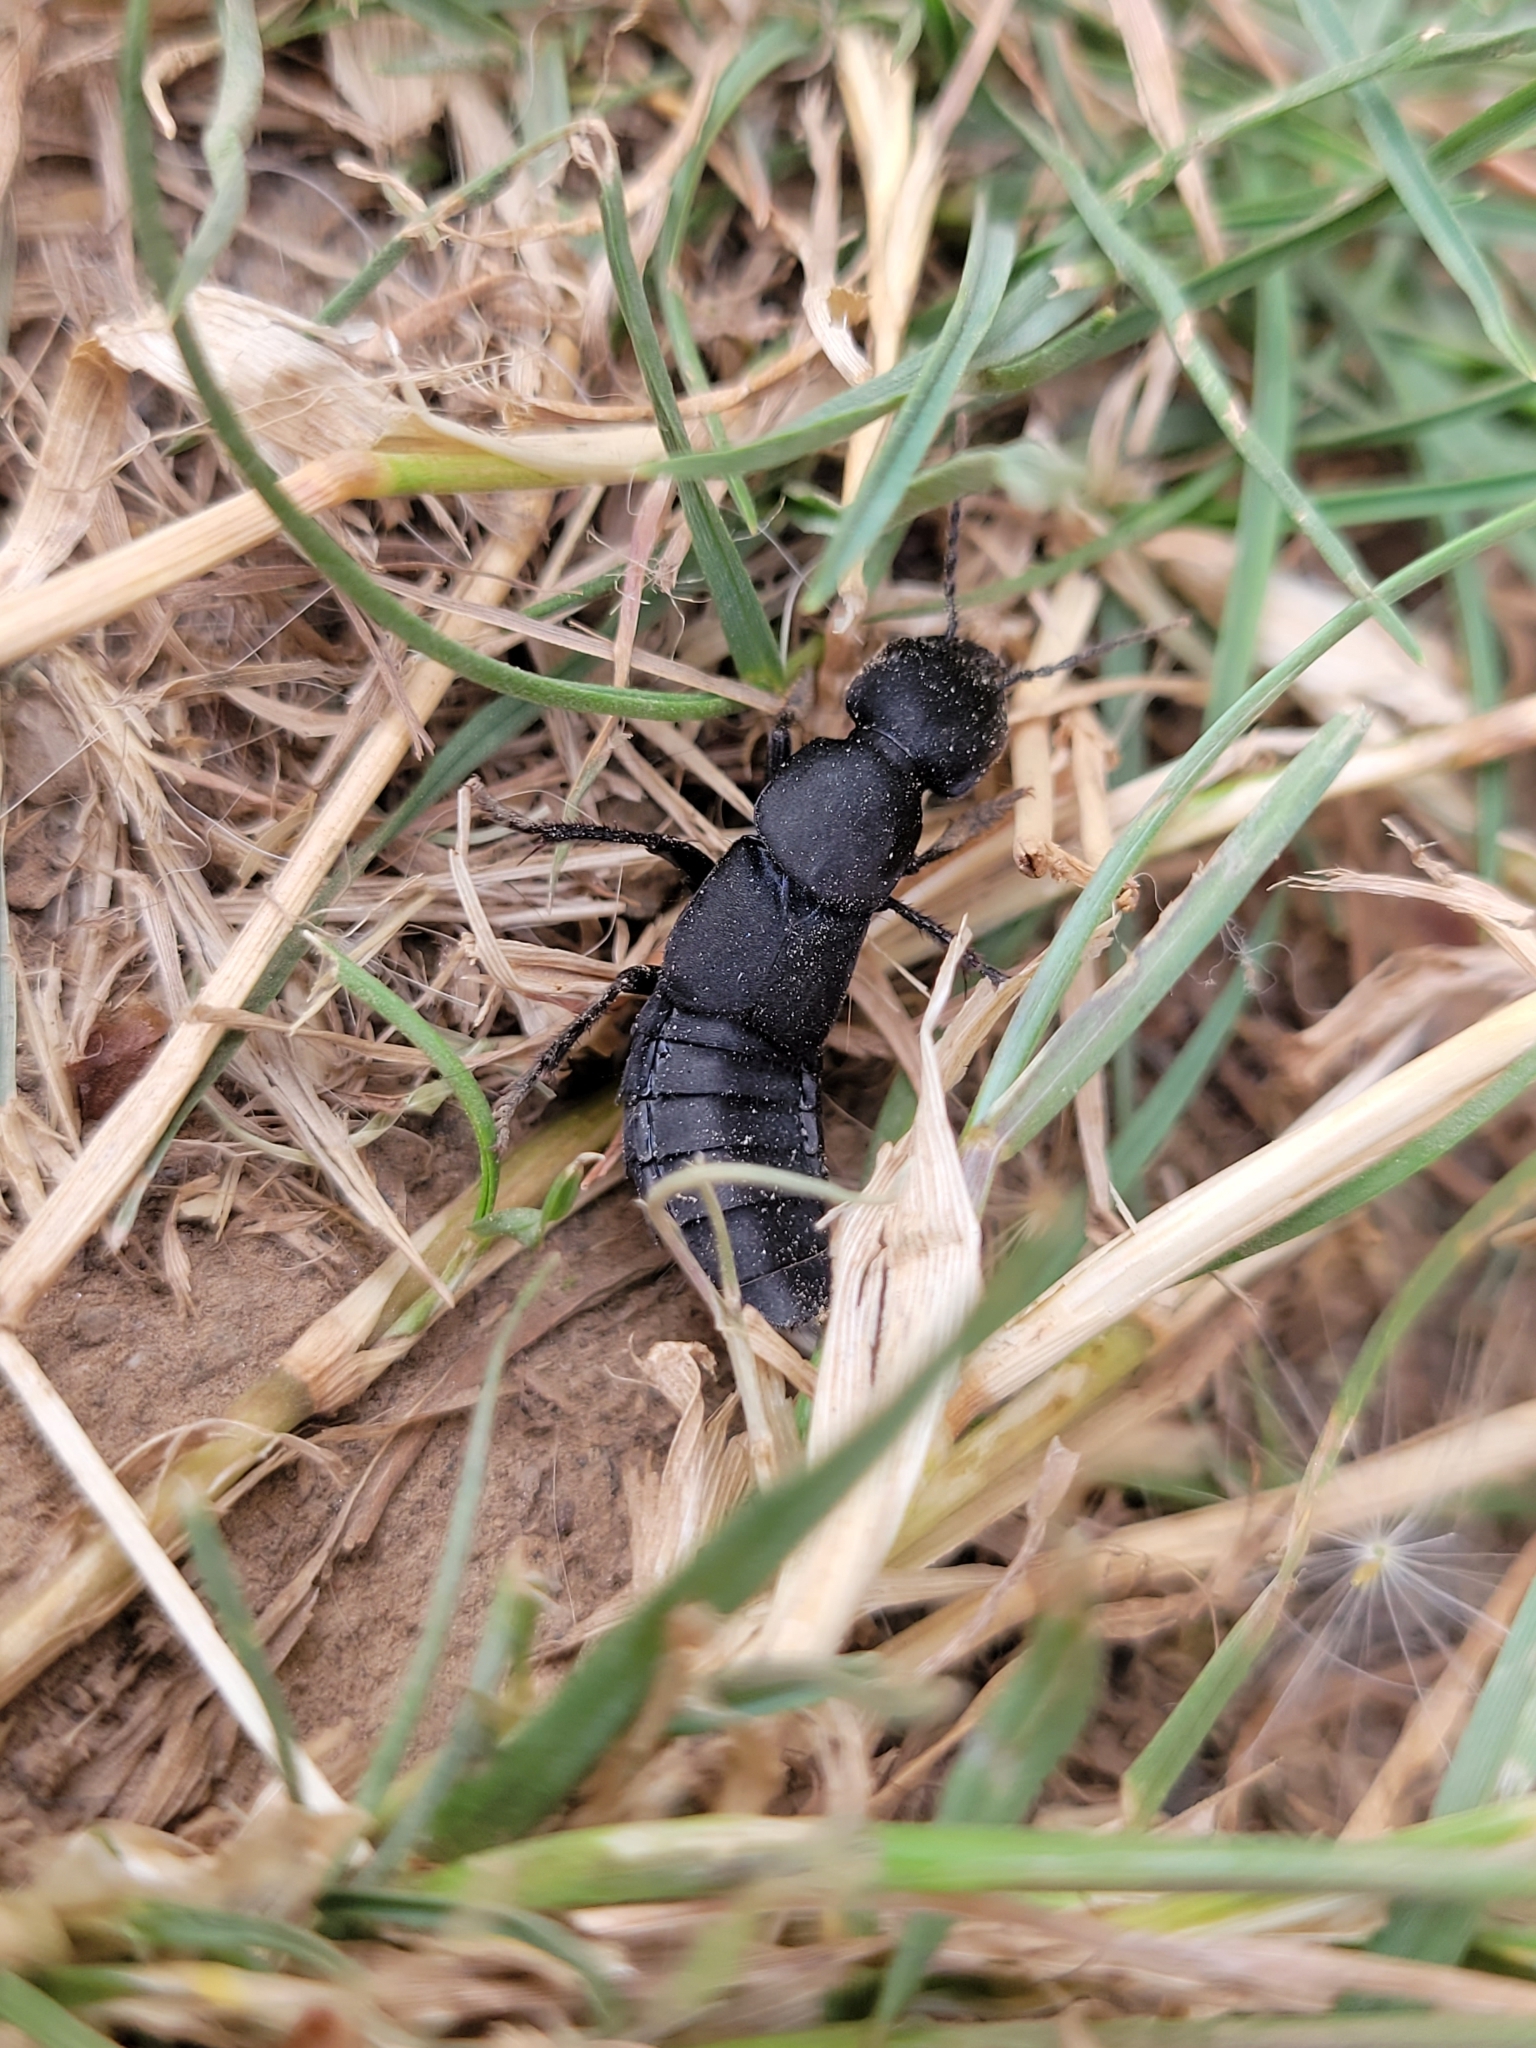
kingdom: Animalia
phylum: Arthropoda
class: Insecta
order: Coleoptera
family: Staphylinidae
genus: Ocypus
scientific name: Ocypus olens
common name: Devil's coach-horse
